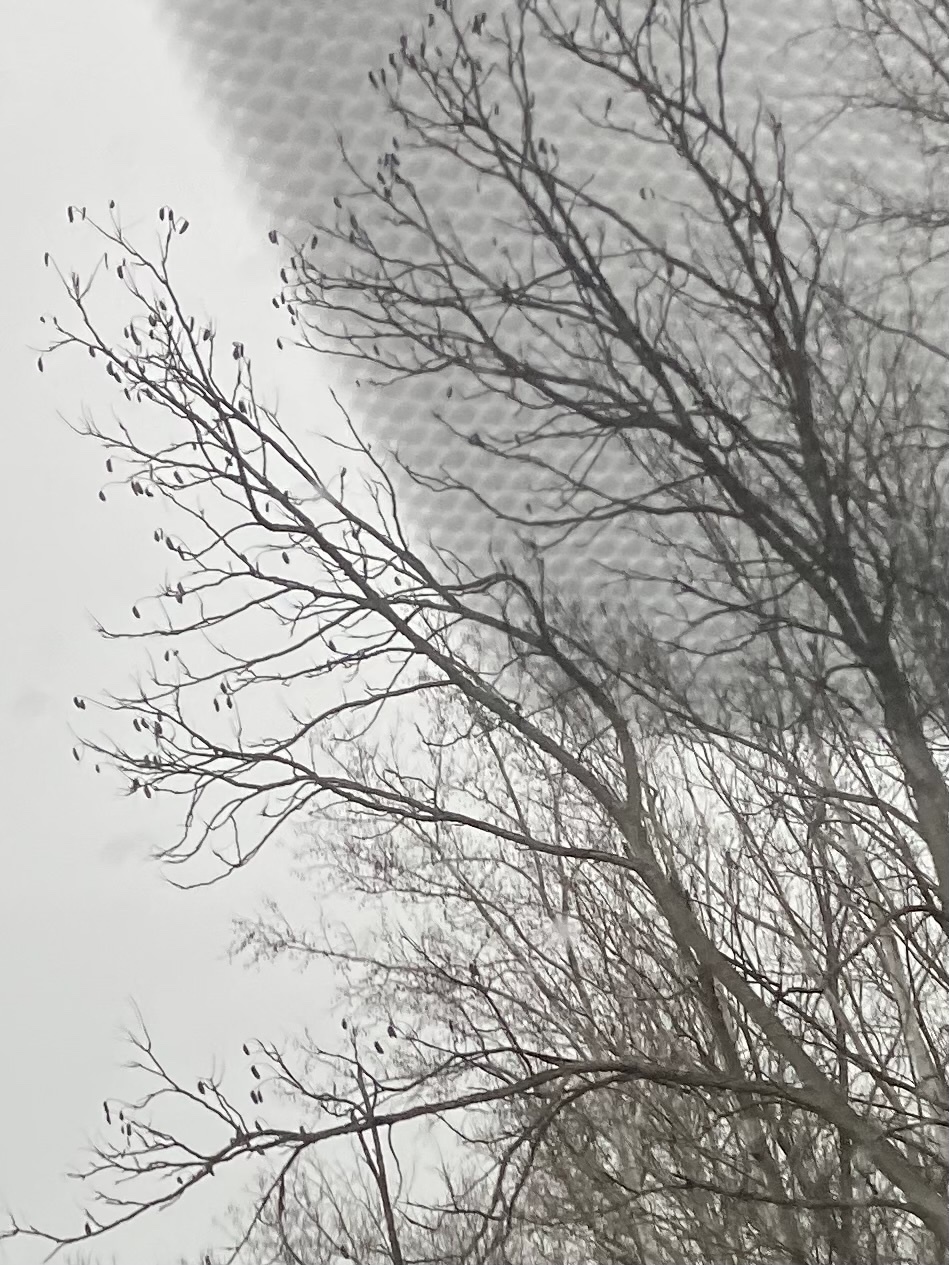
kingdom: Plantae
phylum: Tracheophyta
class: Magnoliopsida
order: Fabales
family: Fabaceae
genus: Gymnocladus
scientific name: Gymnocladus dioicus
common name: Kentucky coffee-tree
